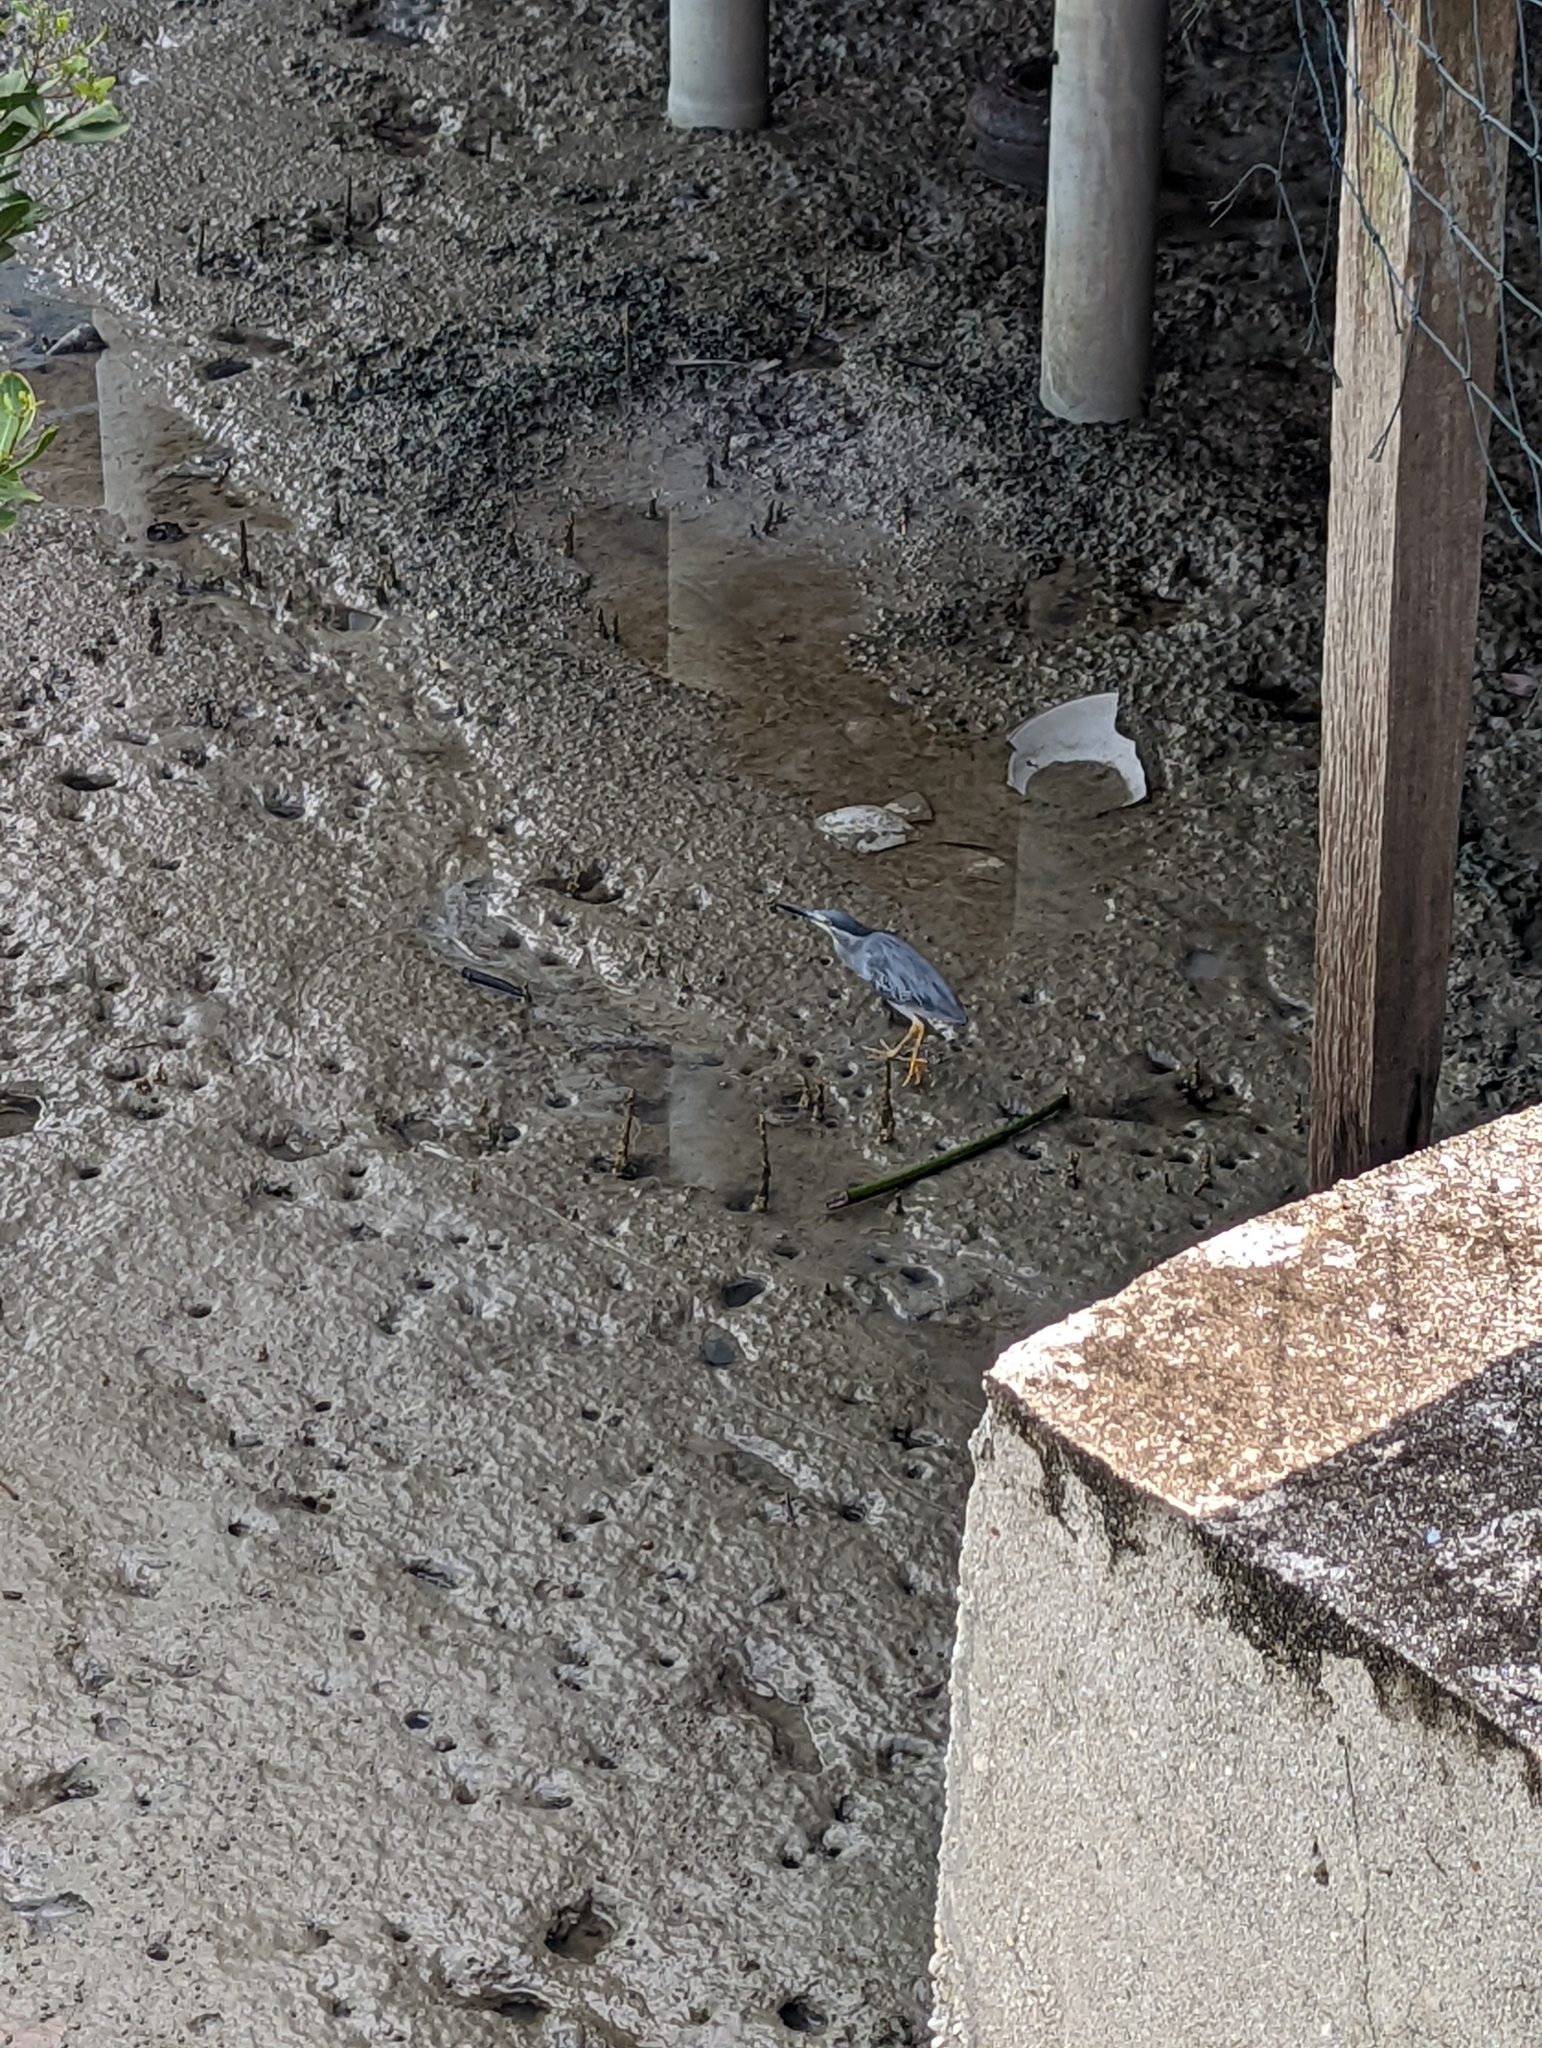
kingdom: Animalia
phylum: Chordata
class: Aves
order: Pelecaniformes
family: Ardeidae
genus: Butorides
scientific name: Butorides striata
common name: Striated heron
